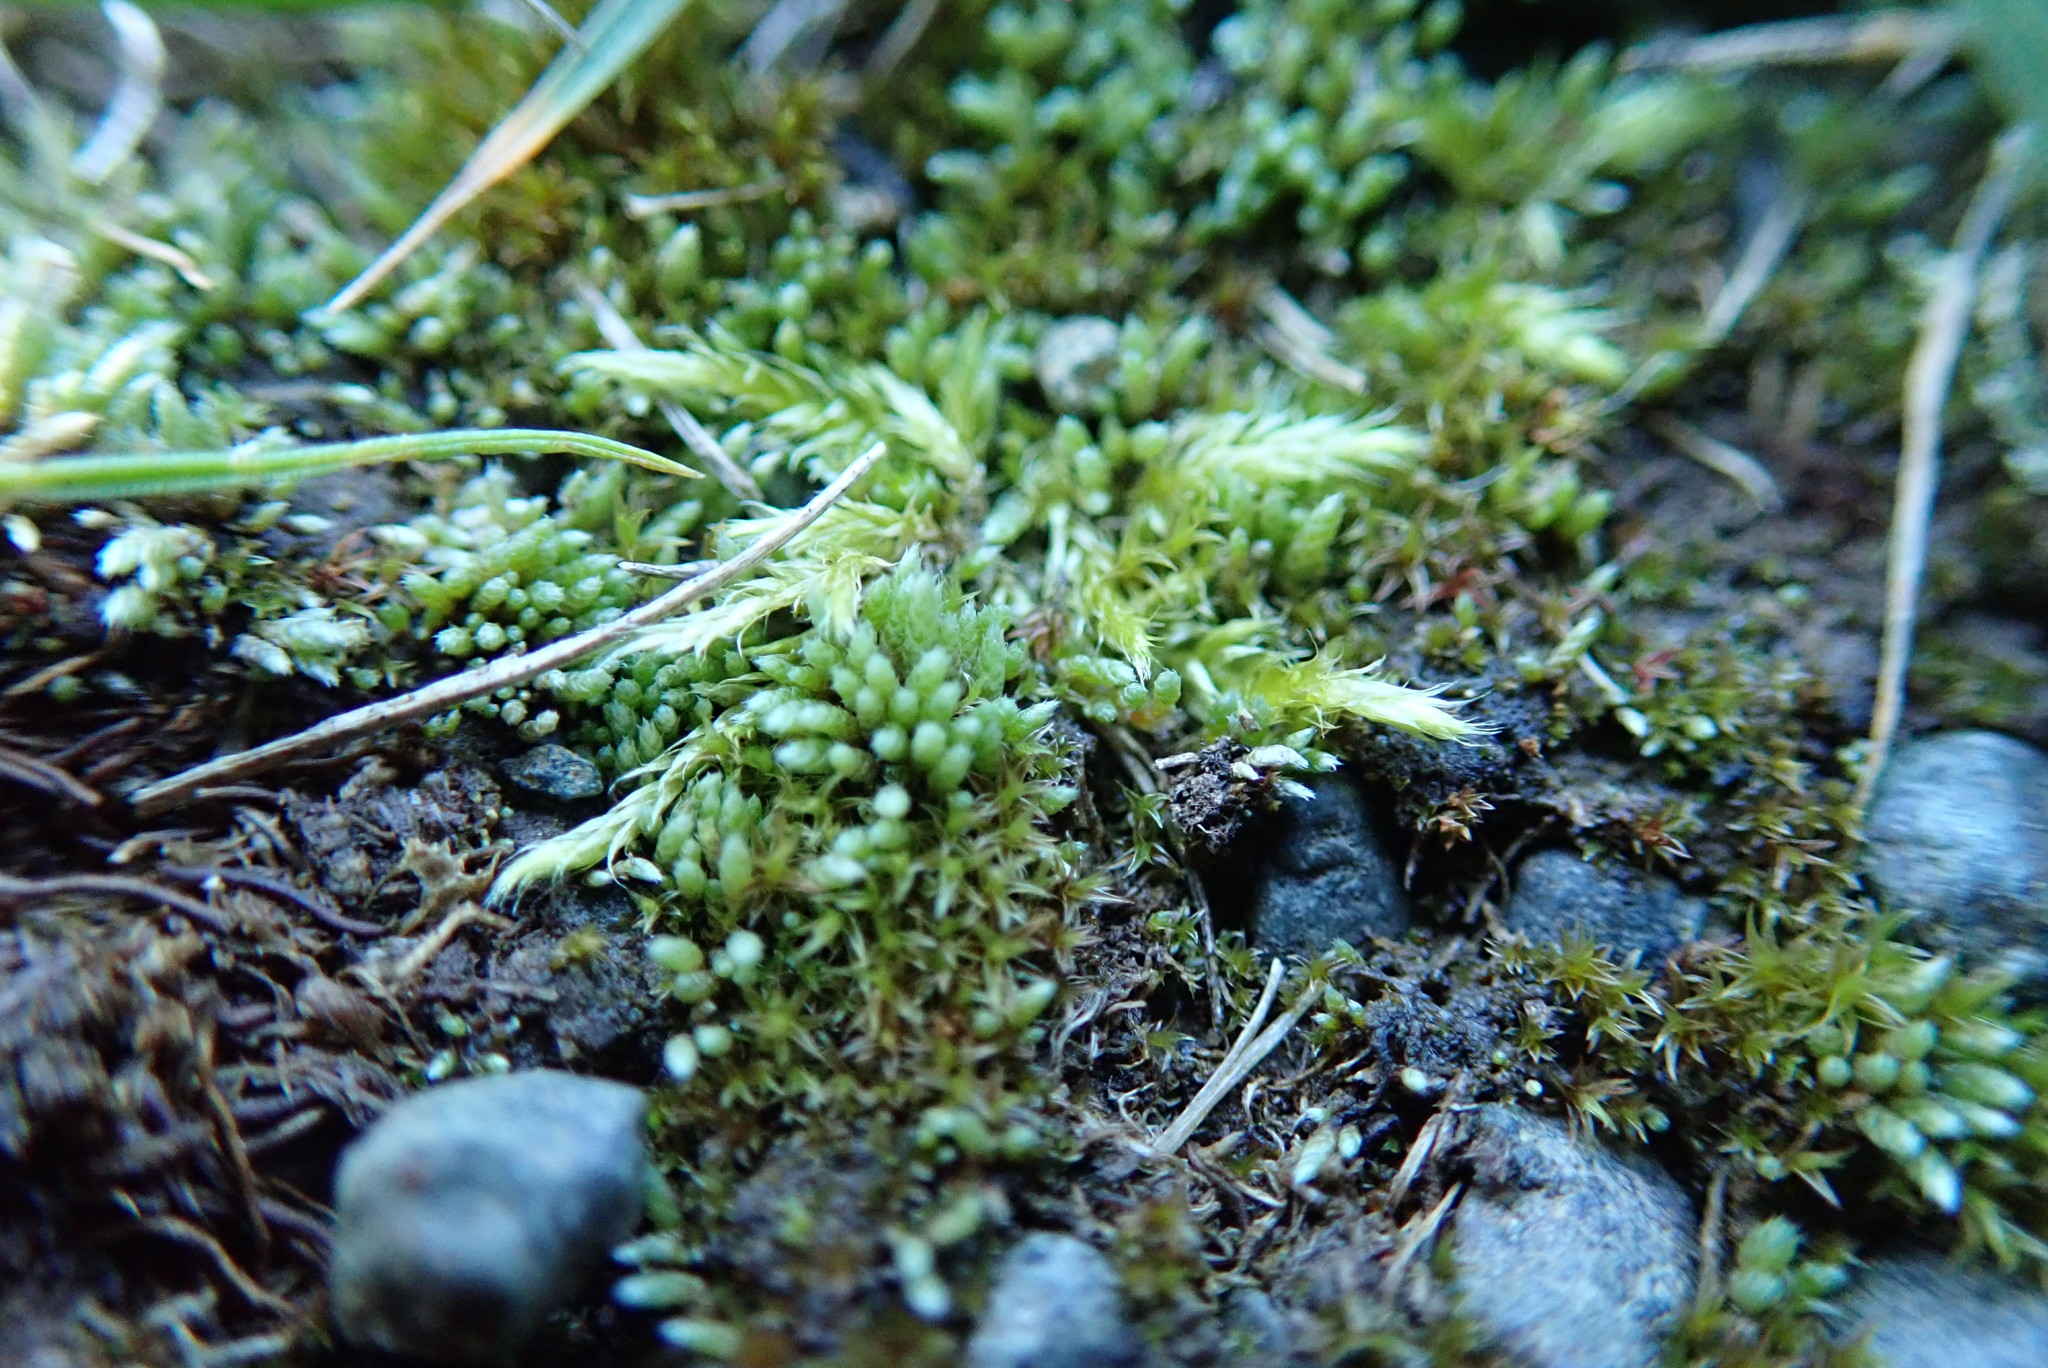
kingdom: Plantae
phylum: Bryophyta
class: Bryopsida
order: Bryales
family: Bryaceae
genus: Bryum
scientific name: Bryum argenteum
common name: Silver-moss
